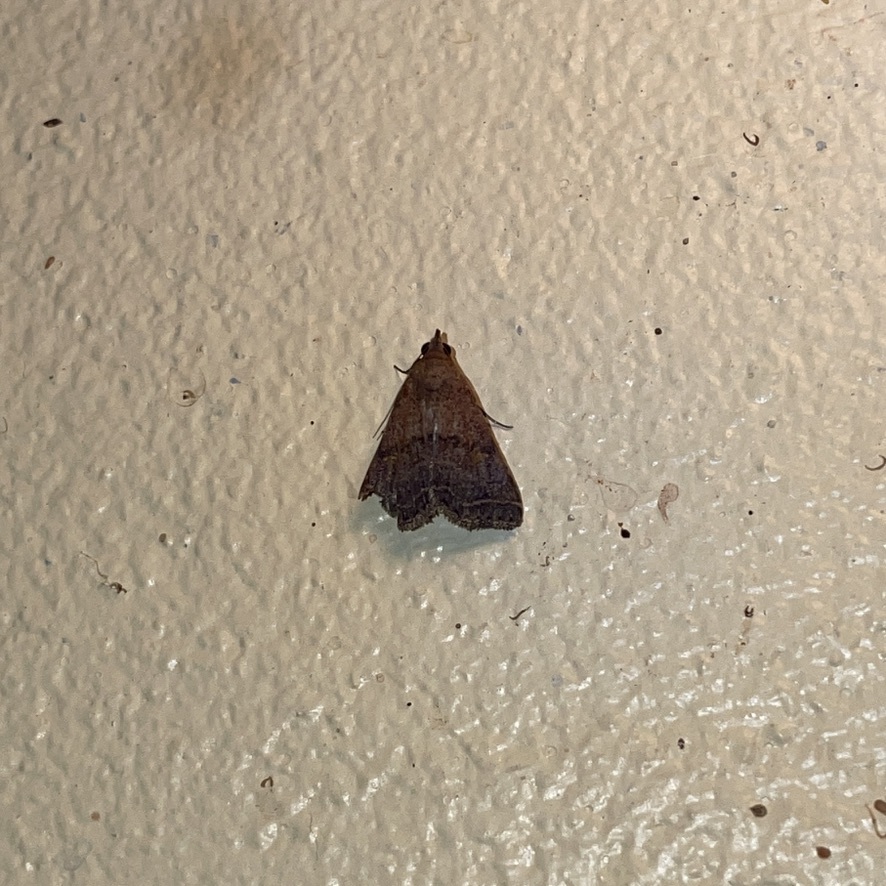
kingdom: Animalia
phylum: Arthropoda
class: Insecta
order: Lepidoptera
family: Erebidae
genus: Bleptina
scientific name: Bleptina caradrinalis
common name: Bent-winged owlet
